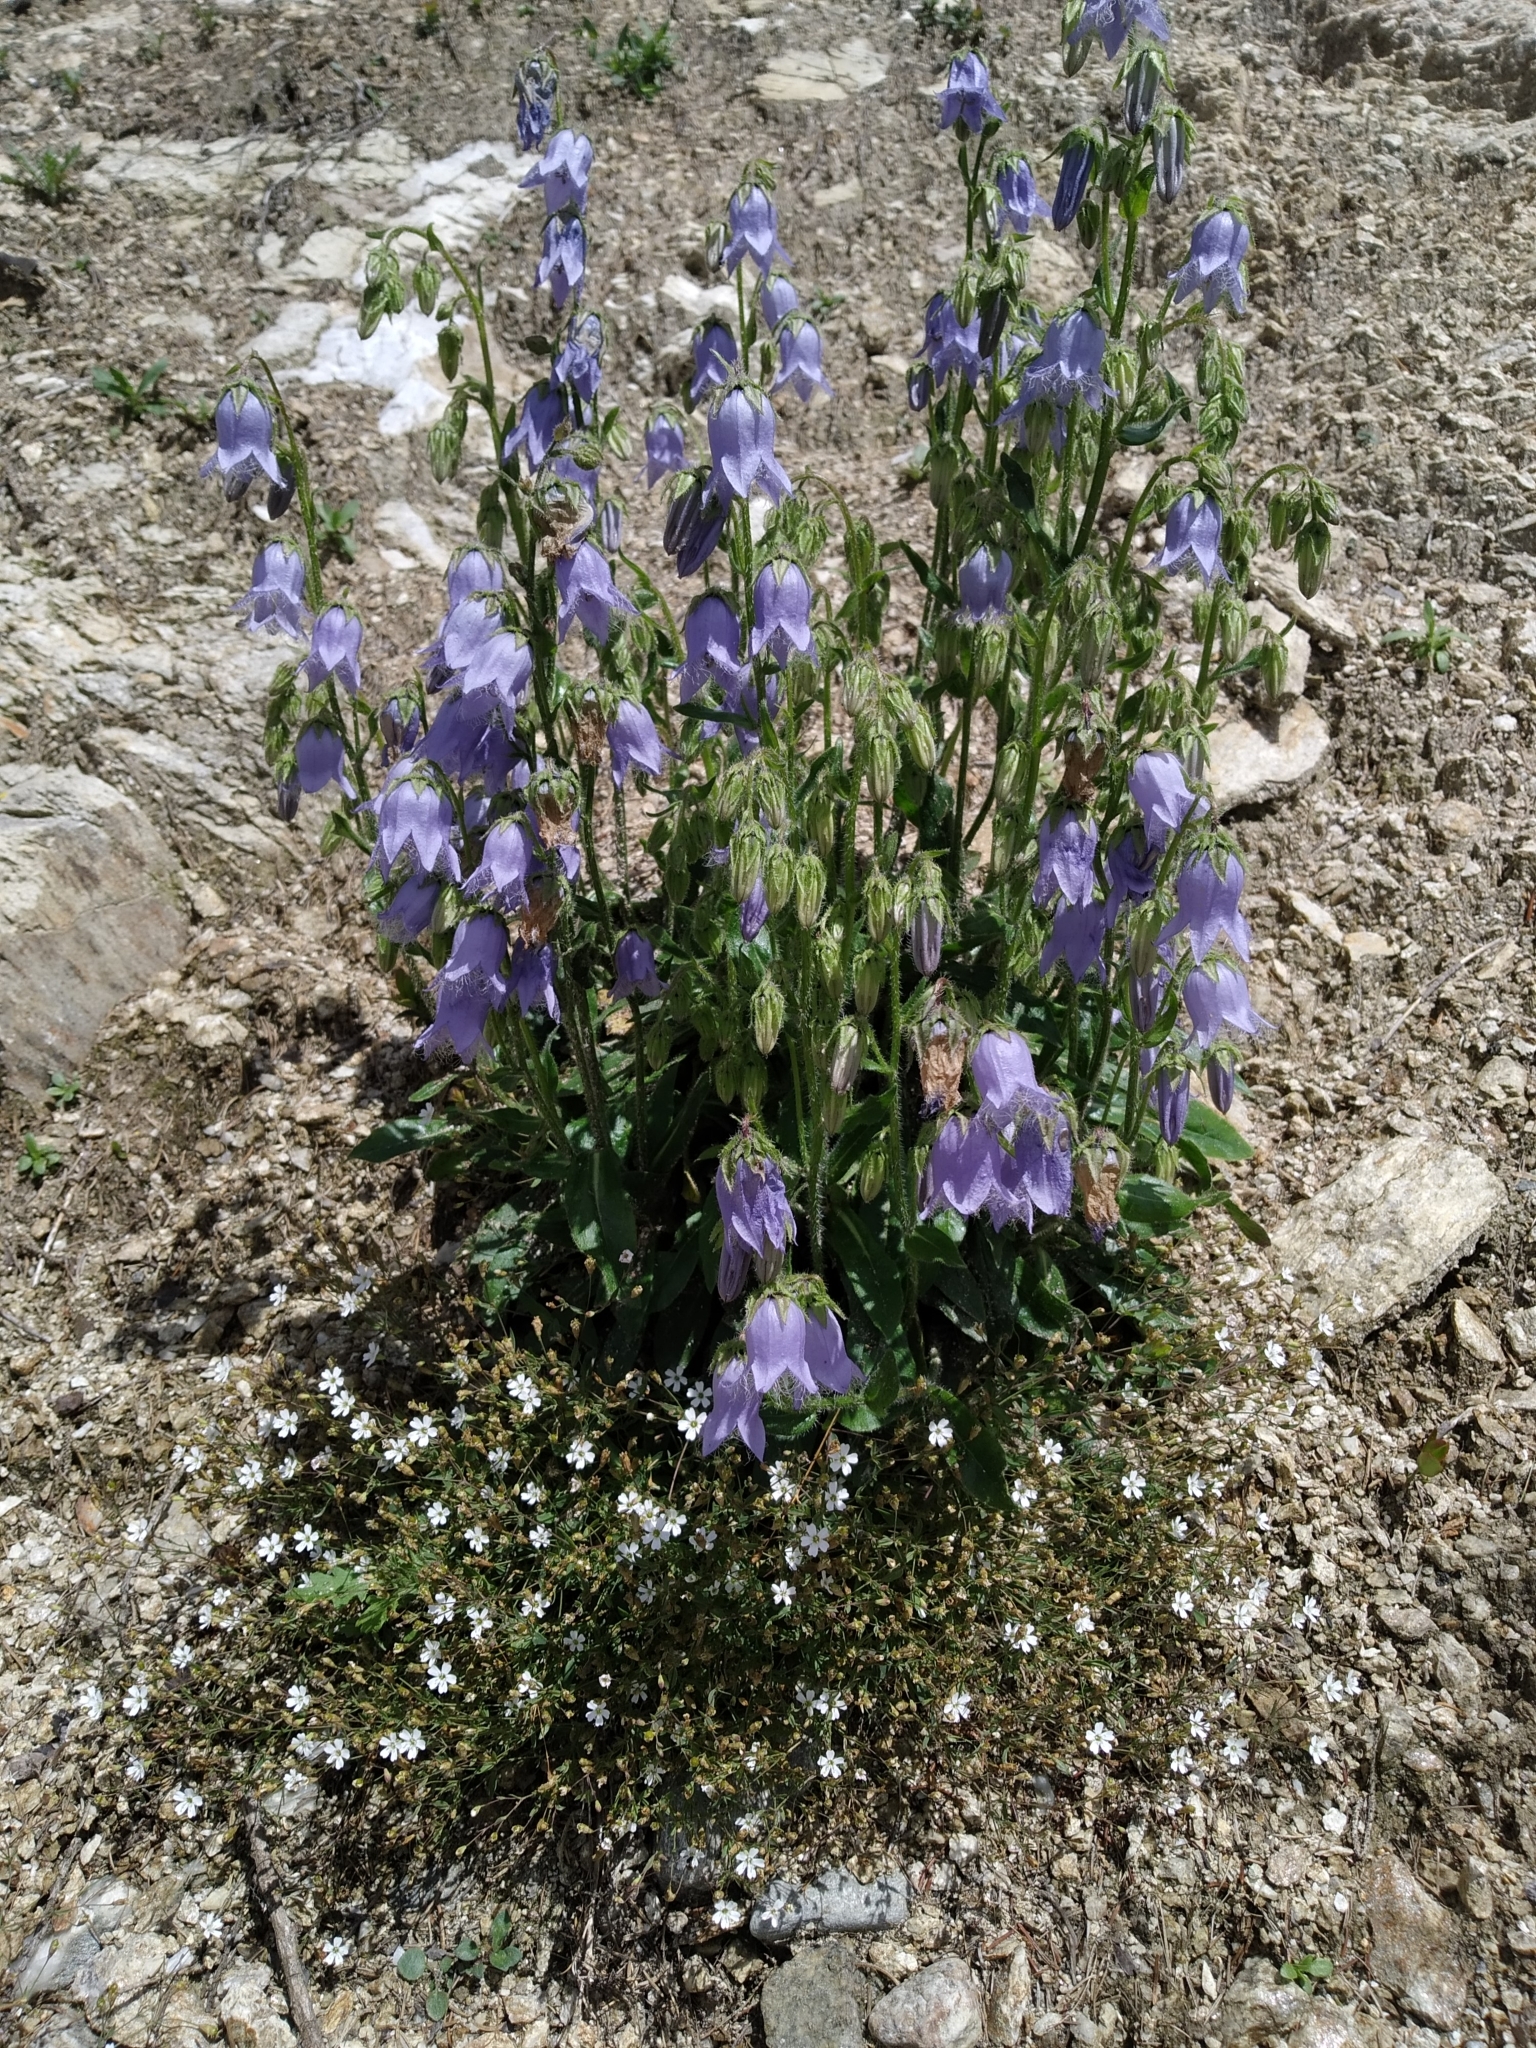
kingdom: Plantae
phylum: Tracheophyta
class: Magnoliopsida
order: Asterales
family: Campanulaceae
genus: Campanula
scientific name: Campanula barbata
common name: Bearded bellflower
